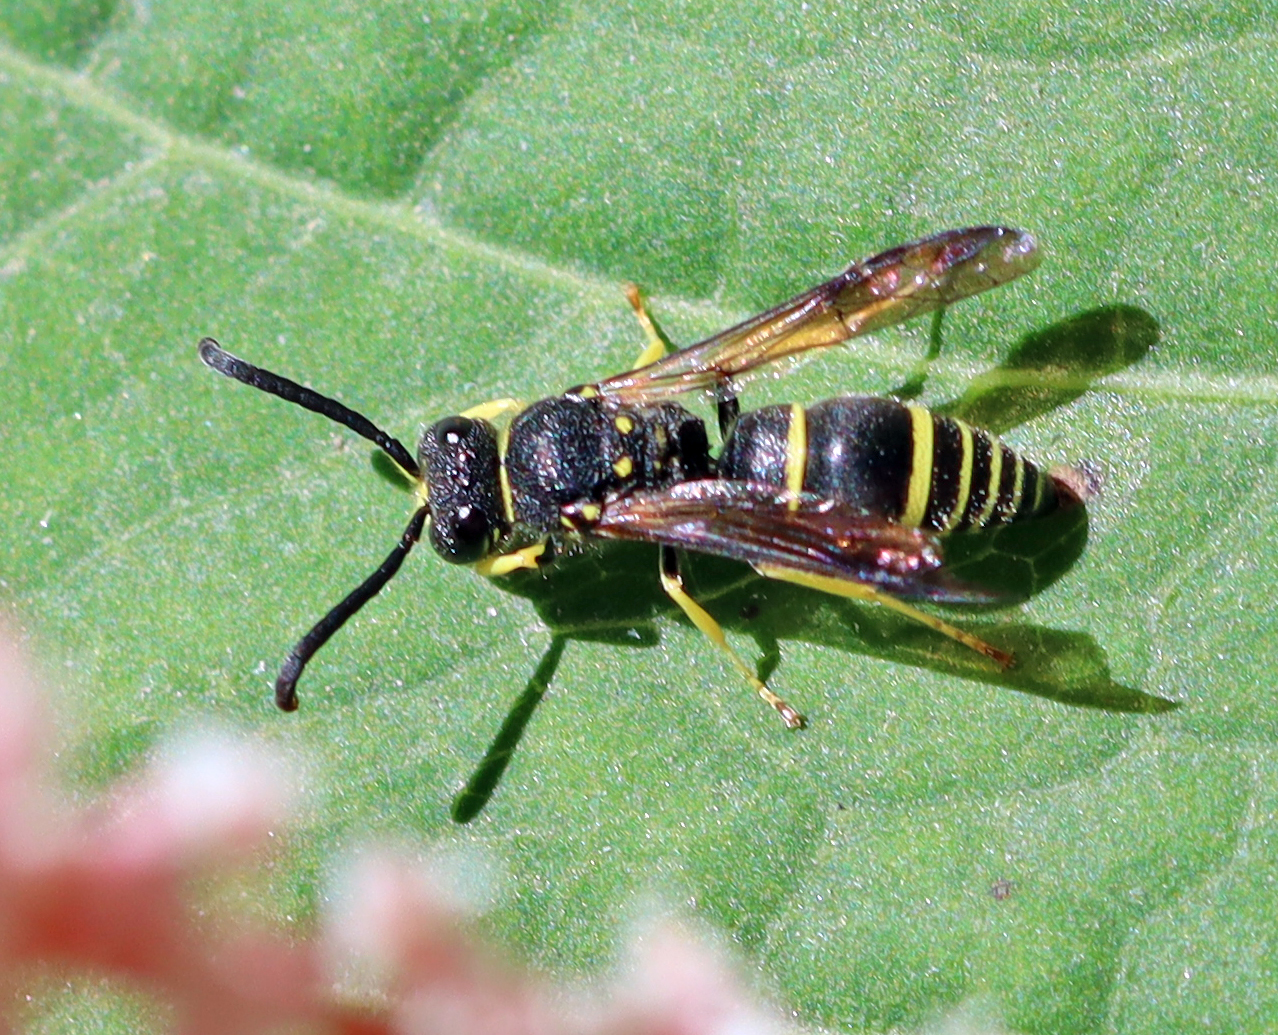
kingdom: Animalia
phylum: Arthropoda
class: Insecta
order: Hymenoptera
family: Vespidae
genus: Ancistrocerus
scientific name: Ancistrocerus adiabatus
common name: Bramble mason wasp
